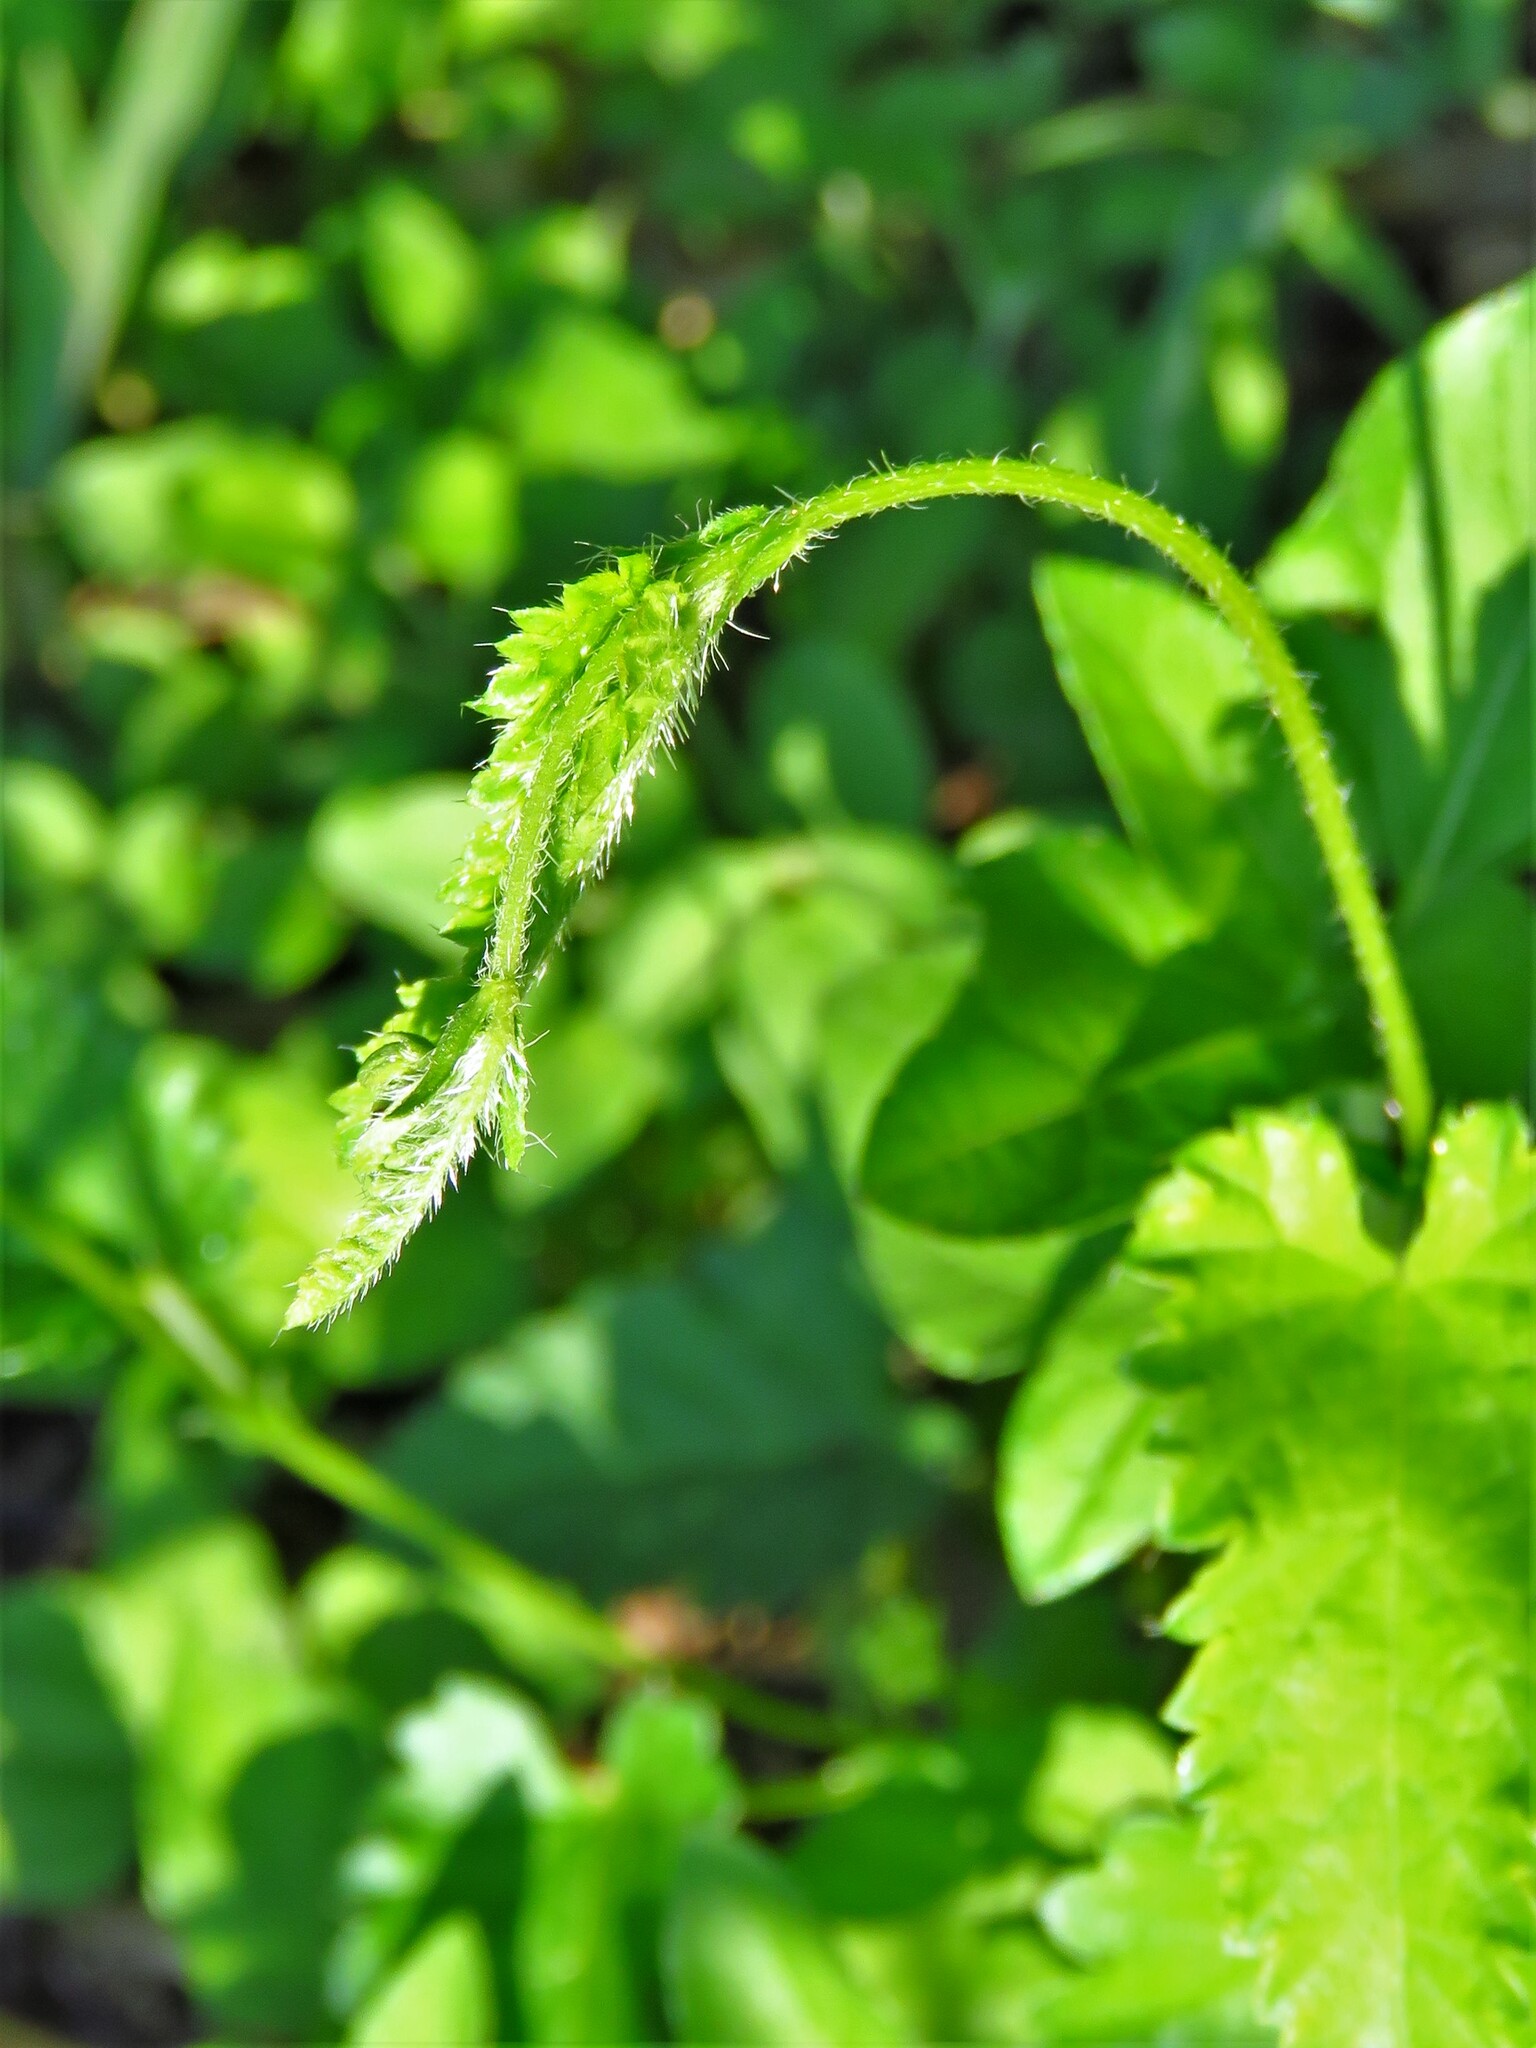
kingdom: Plantae
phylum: Tracheophyta
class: Magnoliopsida
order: Malpighiales
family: Euphorbiaceae
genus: Tragia
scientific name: Tragia urticifolia
